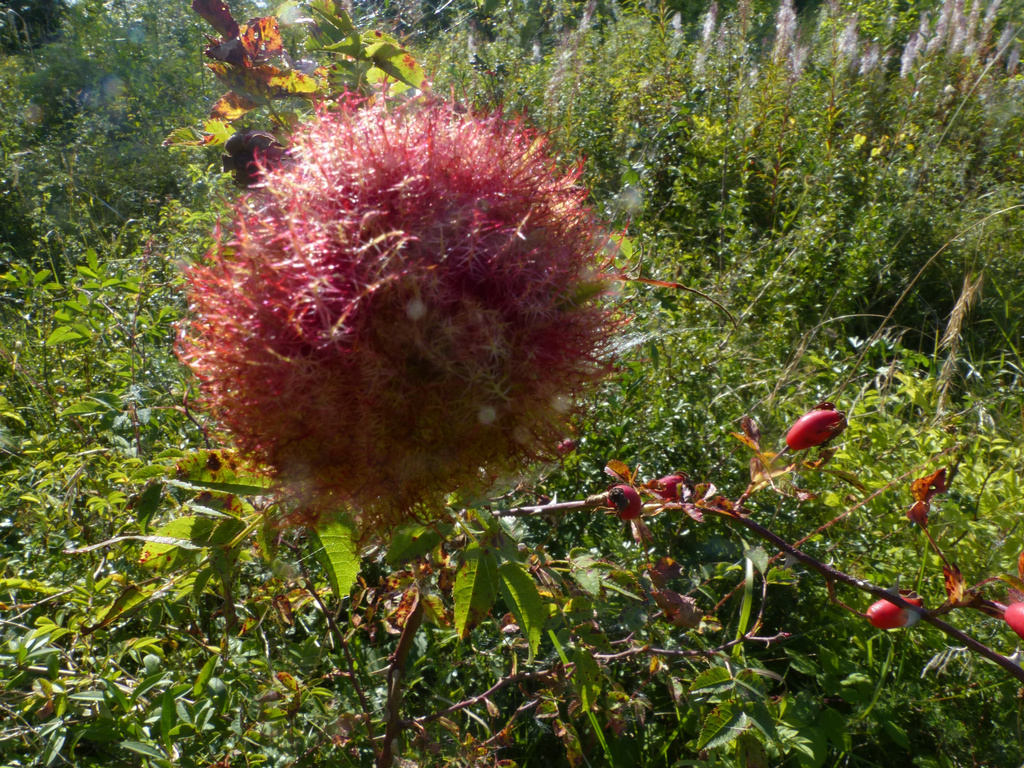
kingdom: Animalia
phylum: Arthropoda
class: Insecta
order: Hymenoptera
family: Cynipidae
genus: Diplolepis
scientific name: Diplolepis rosae
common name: Bedeguar gall
